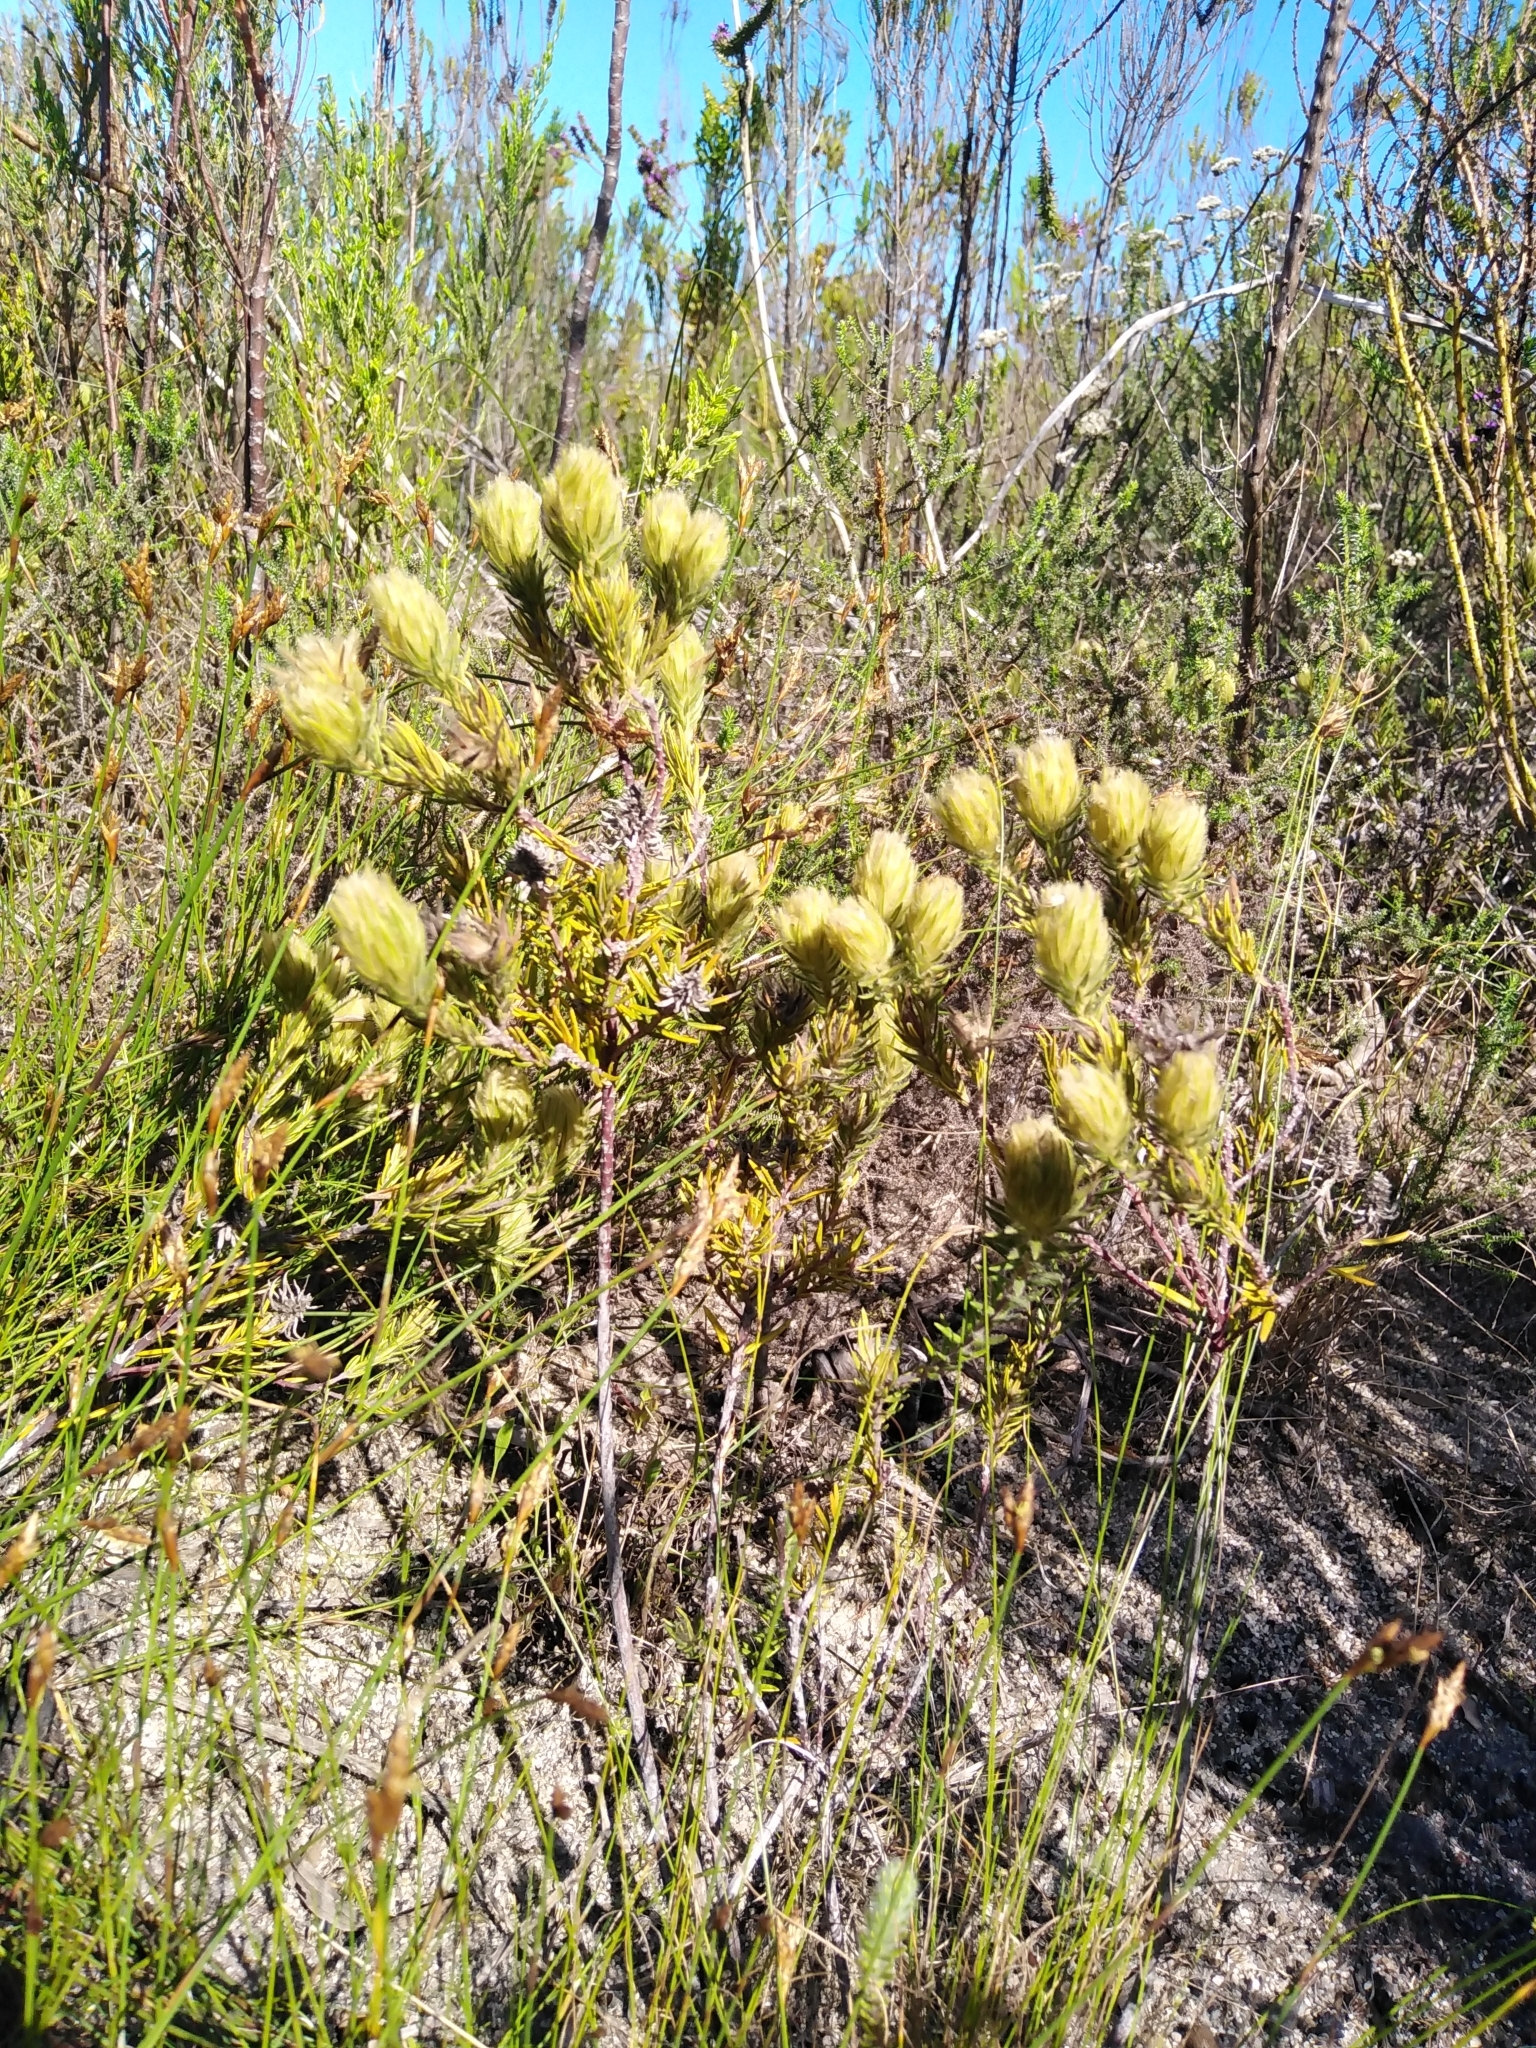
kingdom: Plantae
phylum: Tracheophyta
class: Magnoliopsida
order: Rosales
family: Rhamnaceae
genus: Phylica
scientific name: Phylica pubescens
